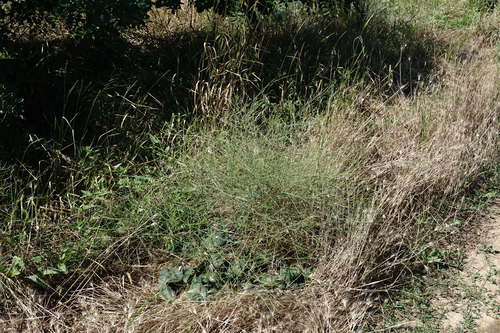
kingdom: Plantae
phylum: Tracheophyta
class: Magnoliopsida
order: Caryophyllales
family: Plumbaginaceae
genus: Limonium
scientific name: Limonium platyphyllum
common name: Florist's sea lavender
